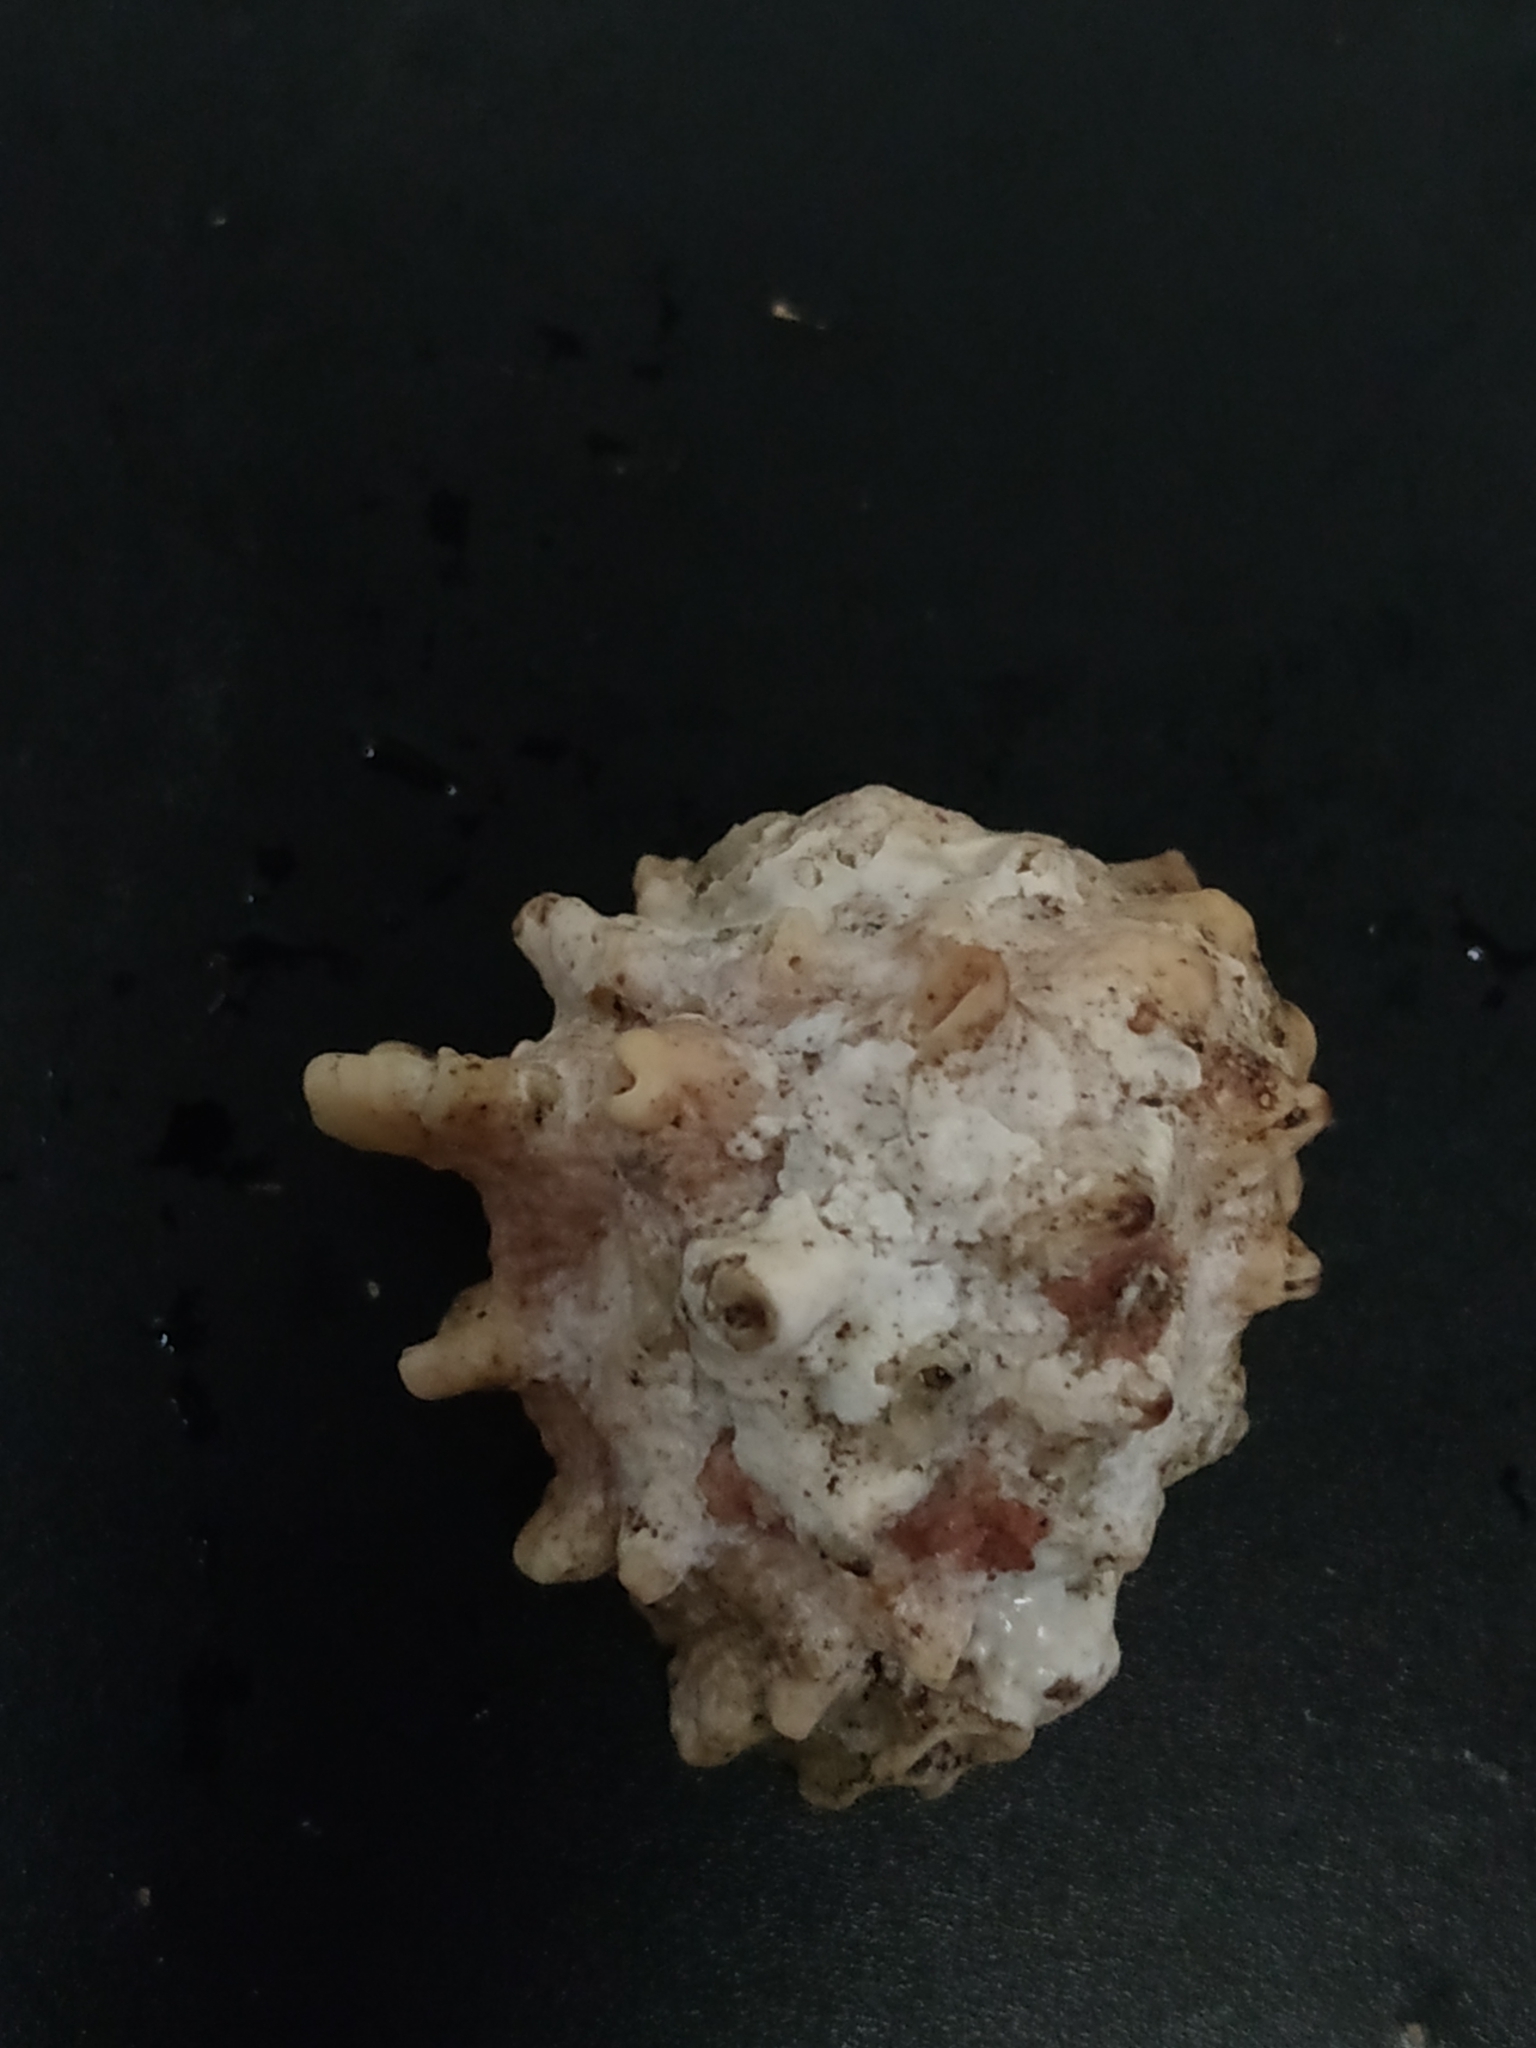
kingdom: Animalia
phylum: Mollusca
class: Gastropoda
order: Neogastropoda
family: Muricidae
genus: Drupa
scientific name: Drupa
